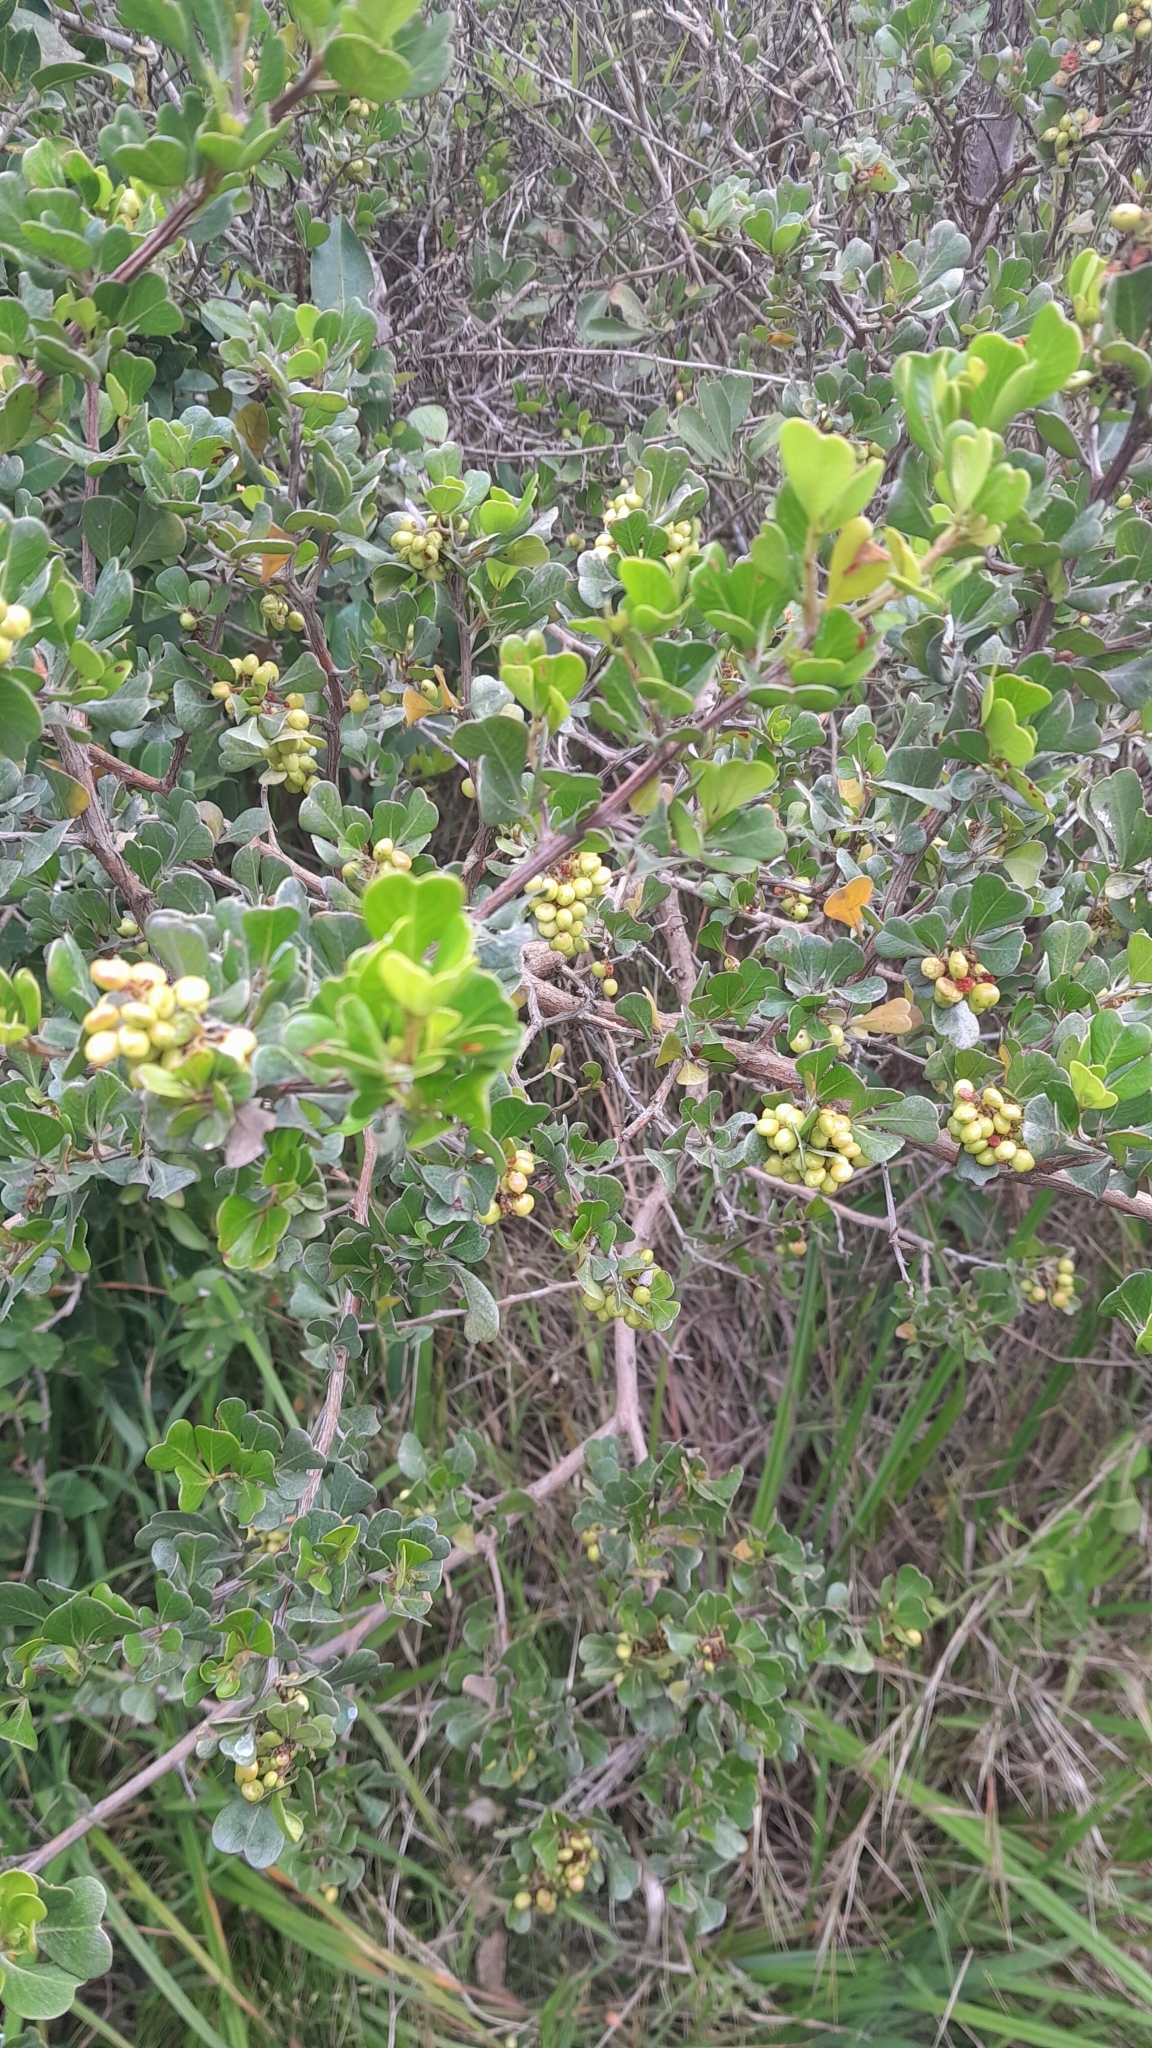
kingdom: Plantae
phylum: Tracheophyta
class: Magnoliopsida
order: Sapindales
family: Anacardiaceae
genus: Searsia
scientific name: Searsia glauca
